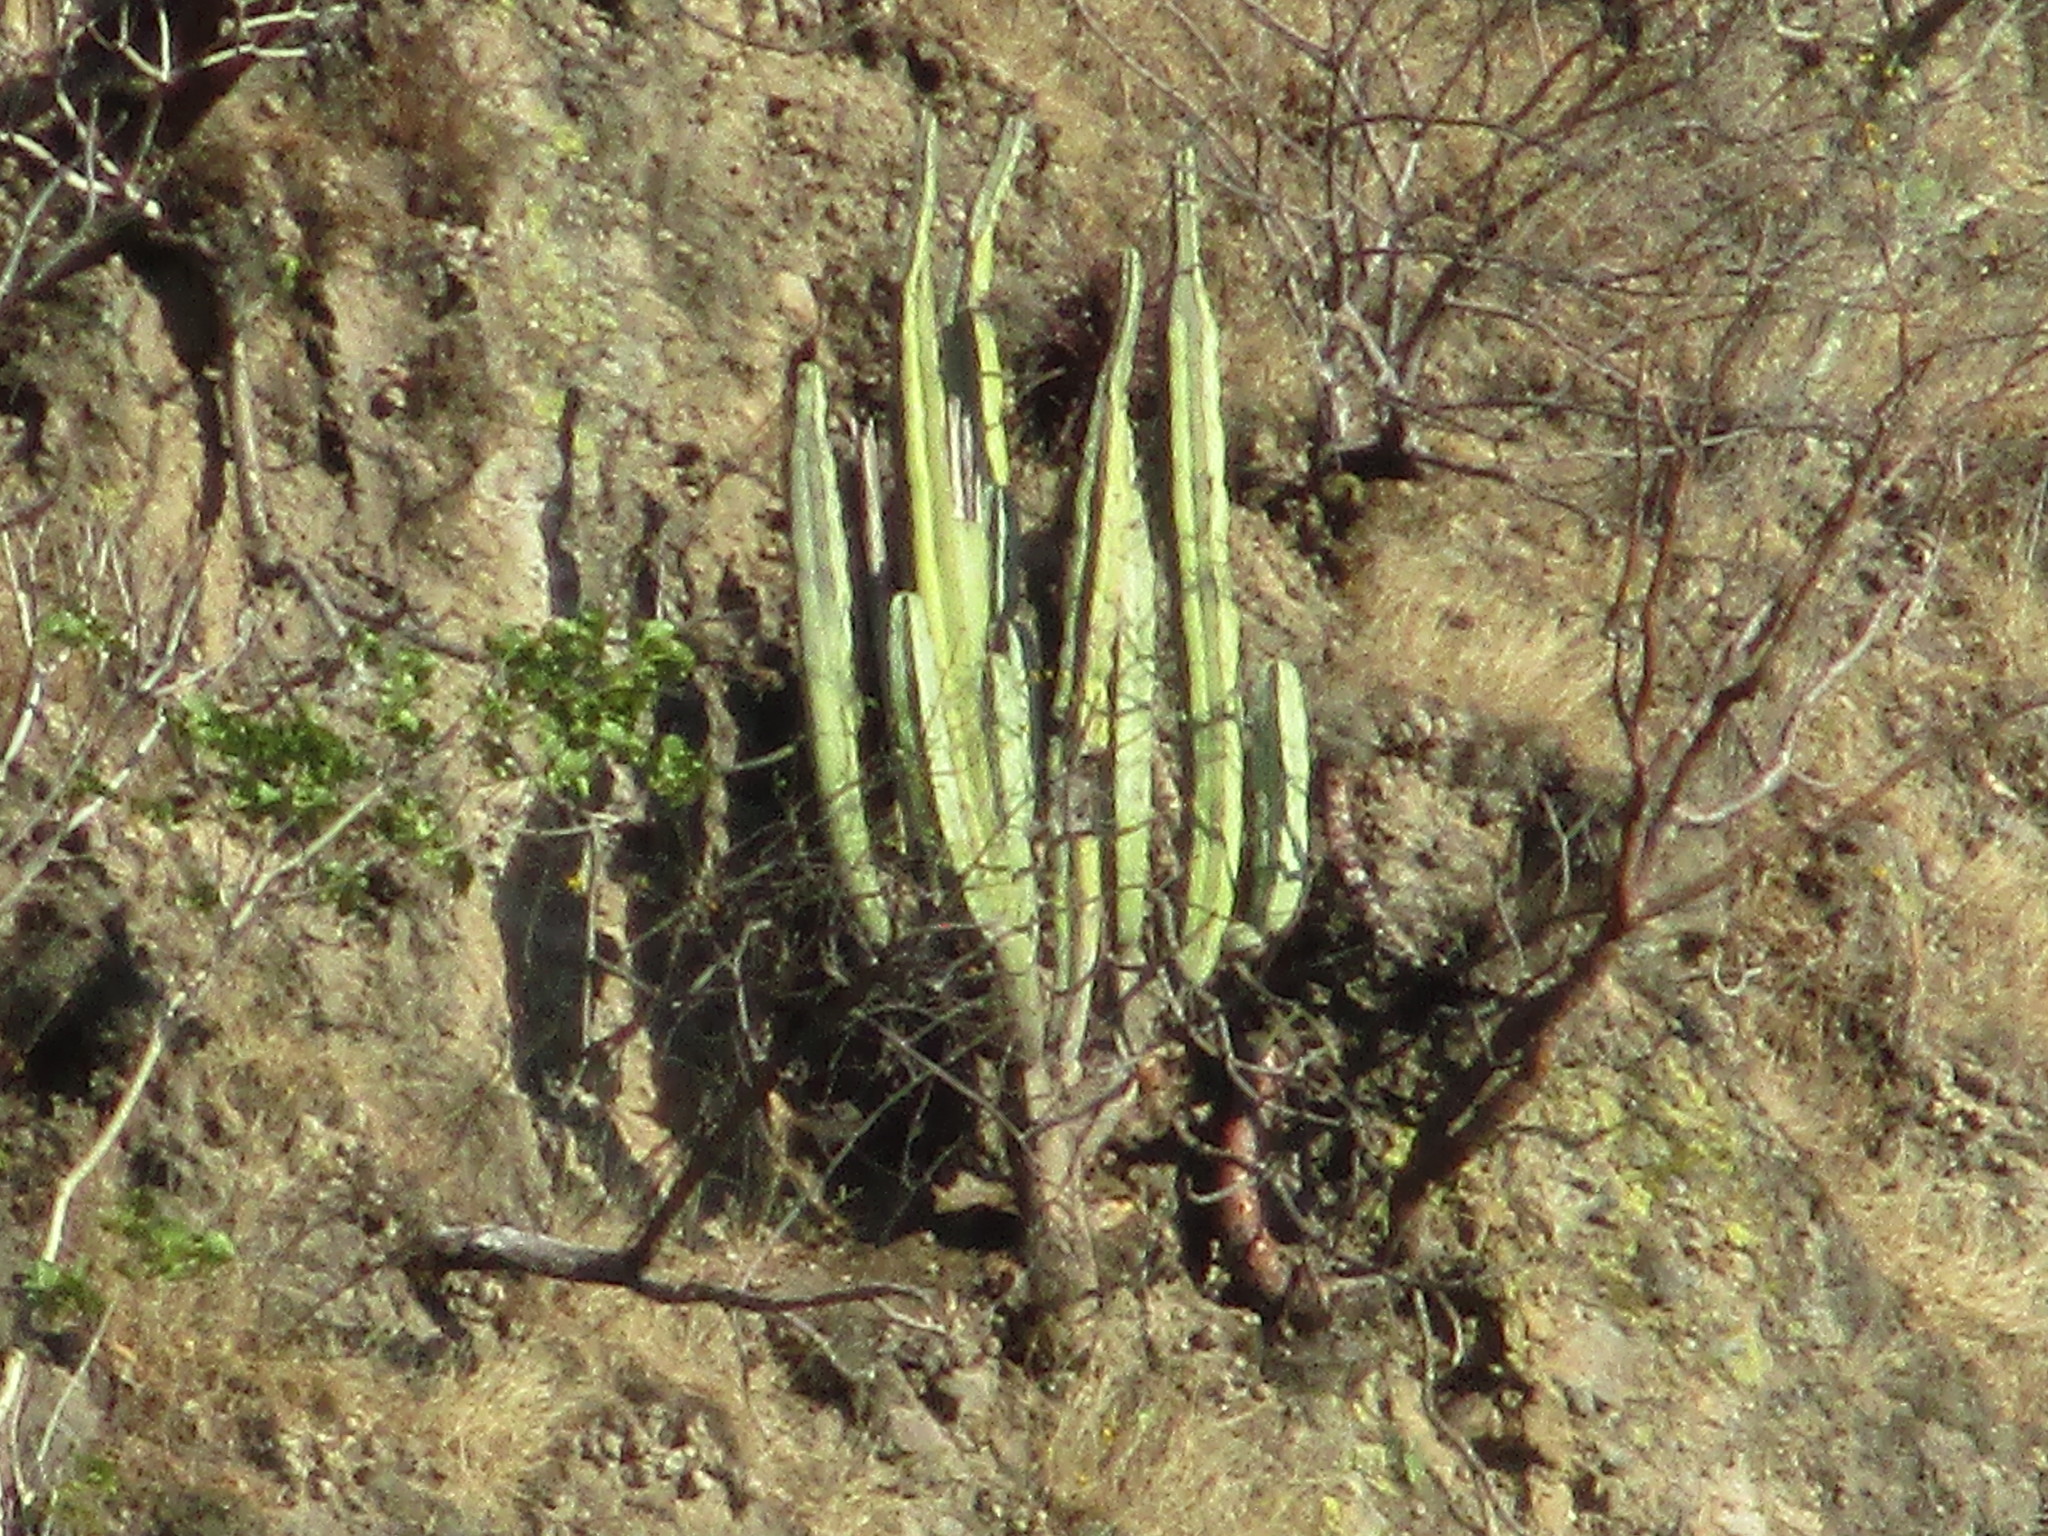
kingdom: Plantae
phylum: Tracheophyta
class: Magnoliopsida
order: Caryophyllales
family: Cactaceae
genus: Stenocereus
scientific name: Stenocereus dumortieri
